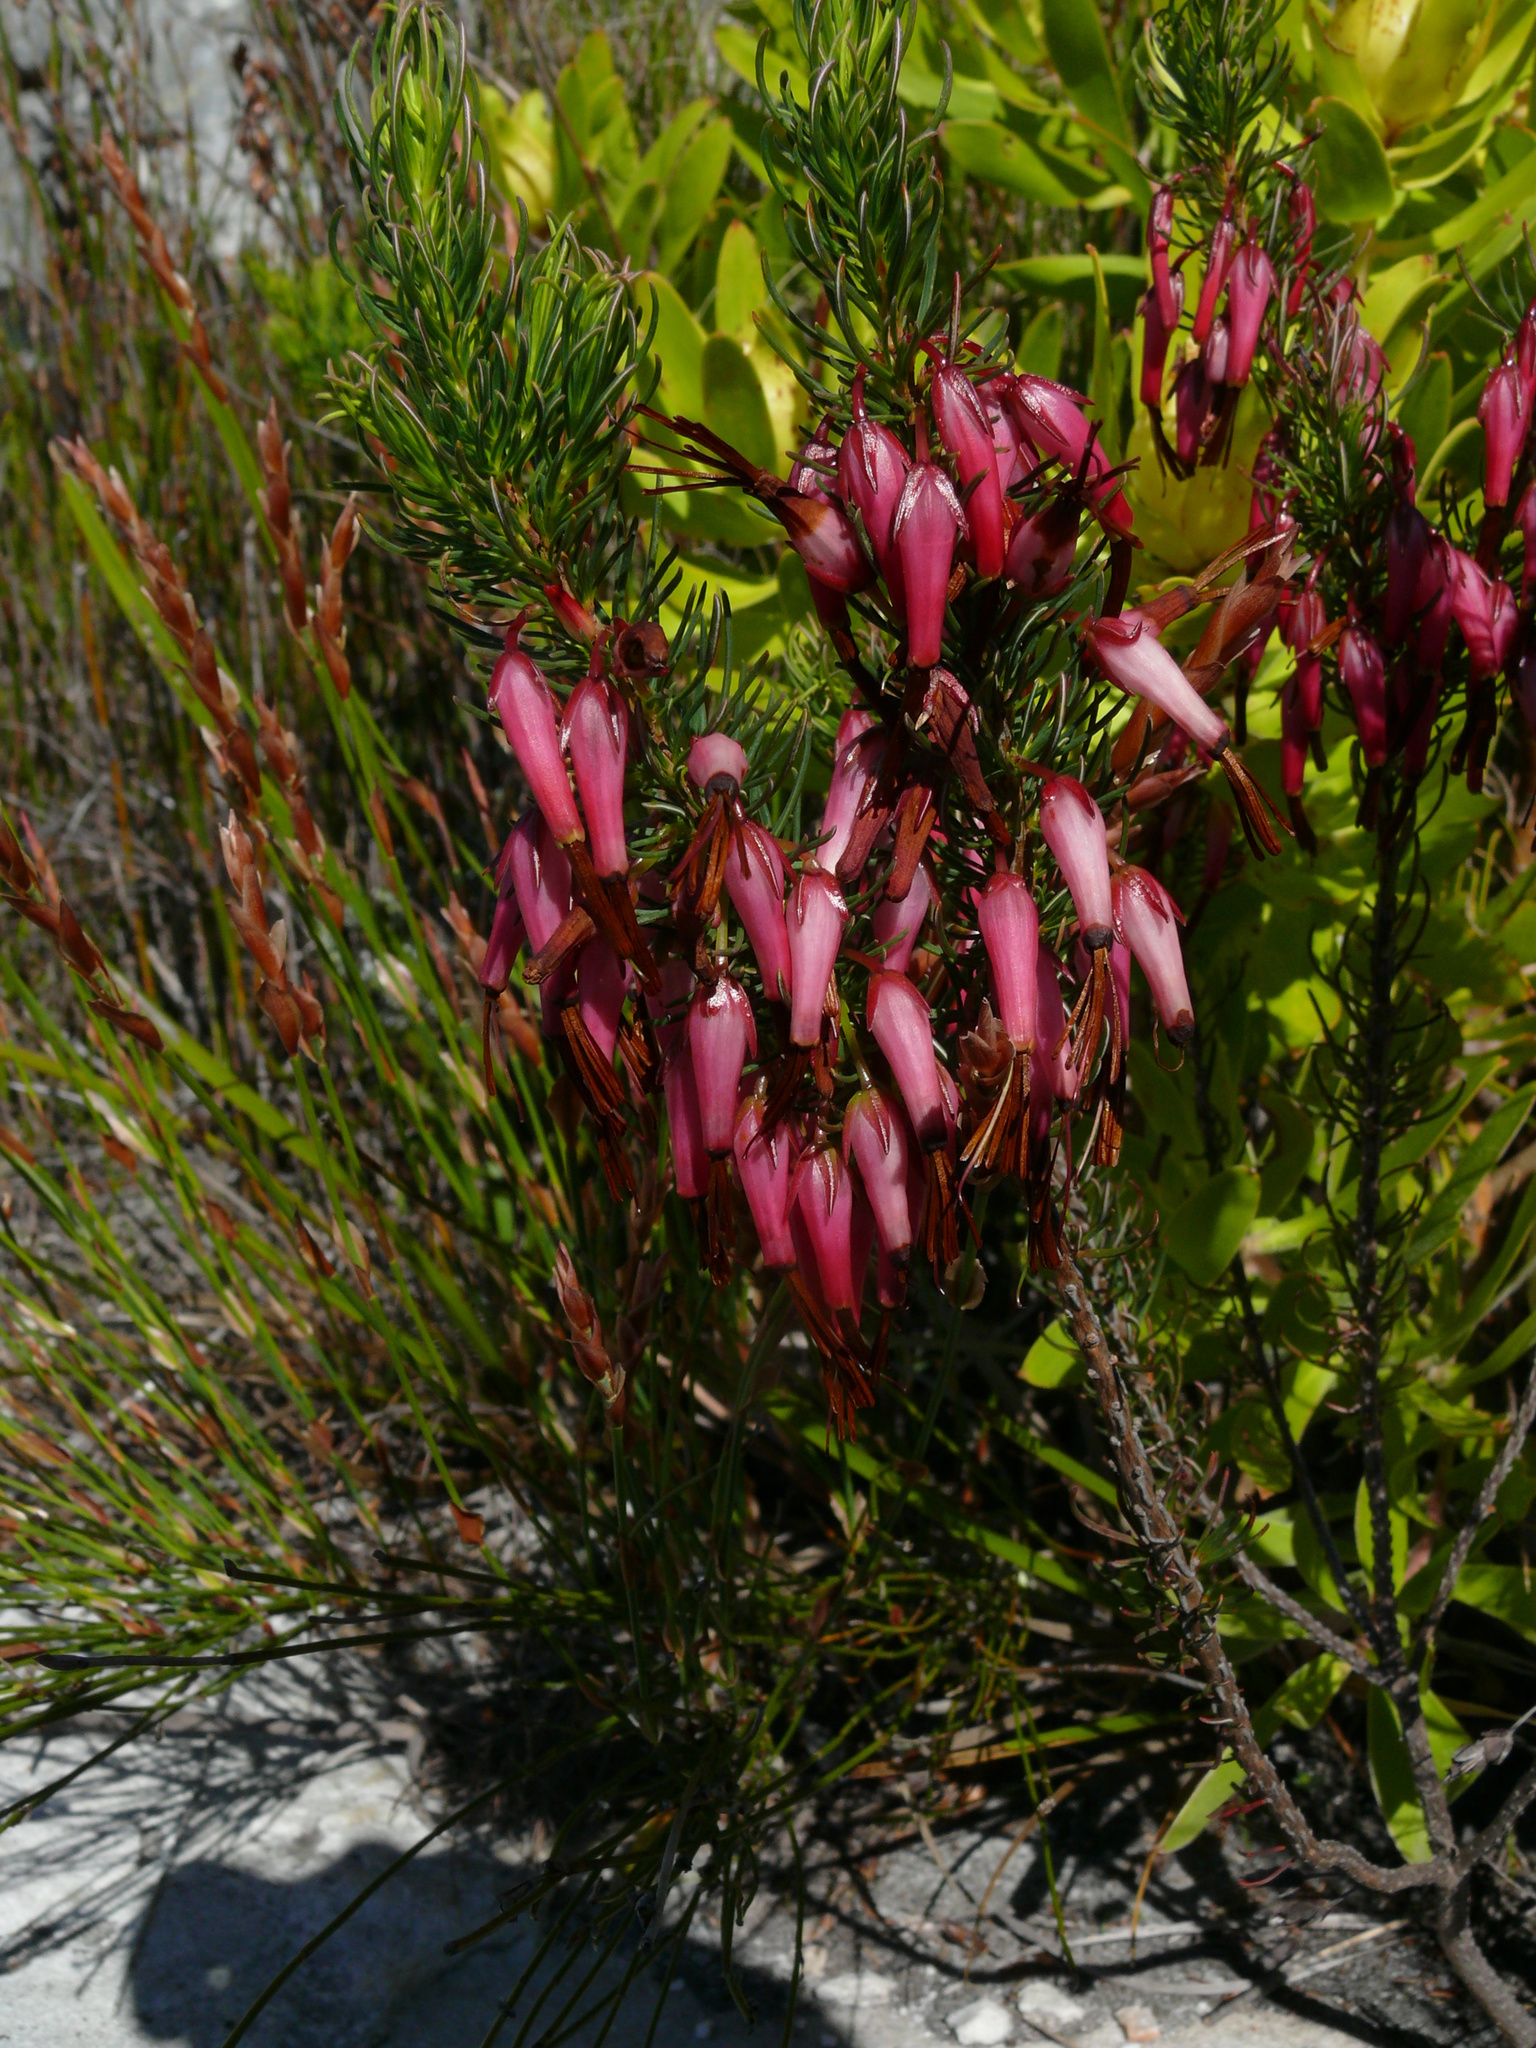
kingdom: Plantae
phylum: Tracheophyta
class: Magnoliopsida
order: Ericales
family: Ericaceae
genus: Erica
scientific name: Erica plukenetii
